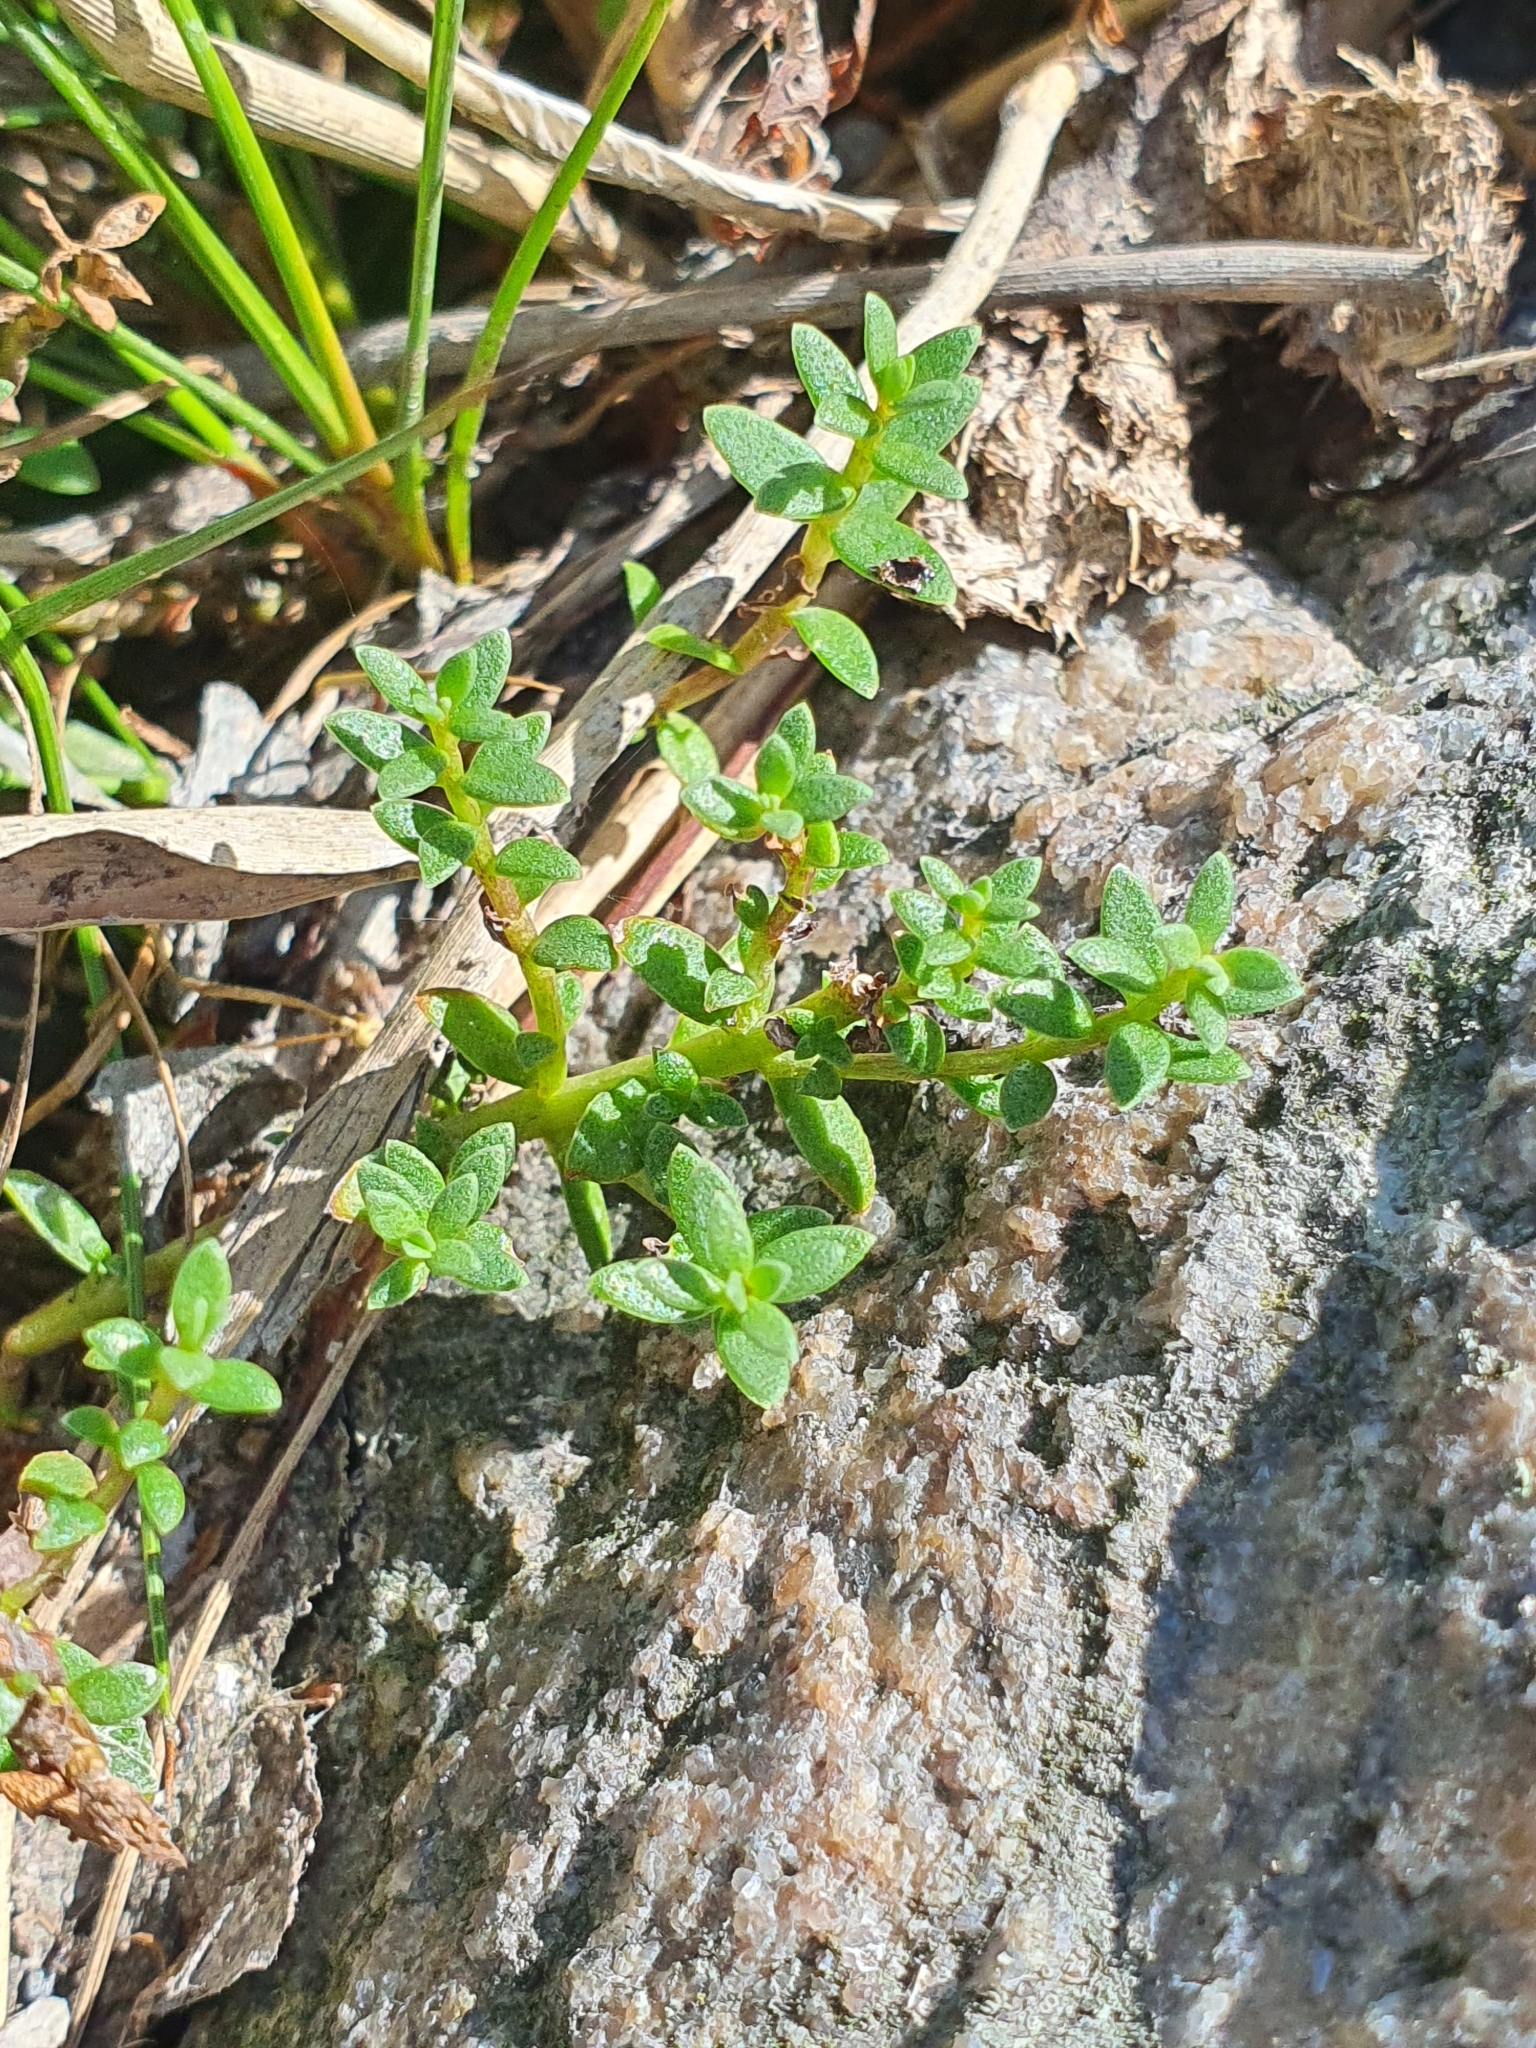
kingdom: Plantae
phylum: Tracheophyta
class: Magnoliopsida
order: Ericales
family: Primulaceae
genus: Lysimachia
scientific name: Lysimachia maritima
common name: Sea milkwort
